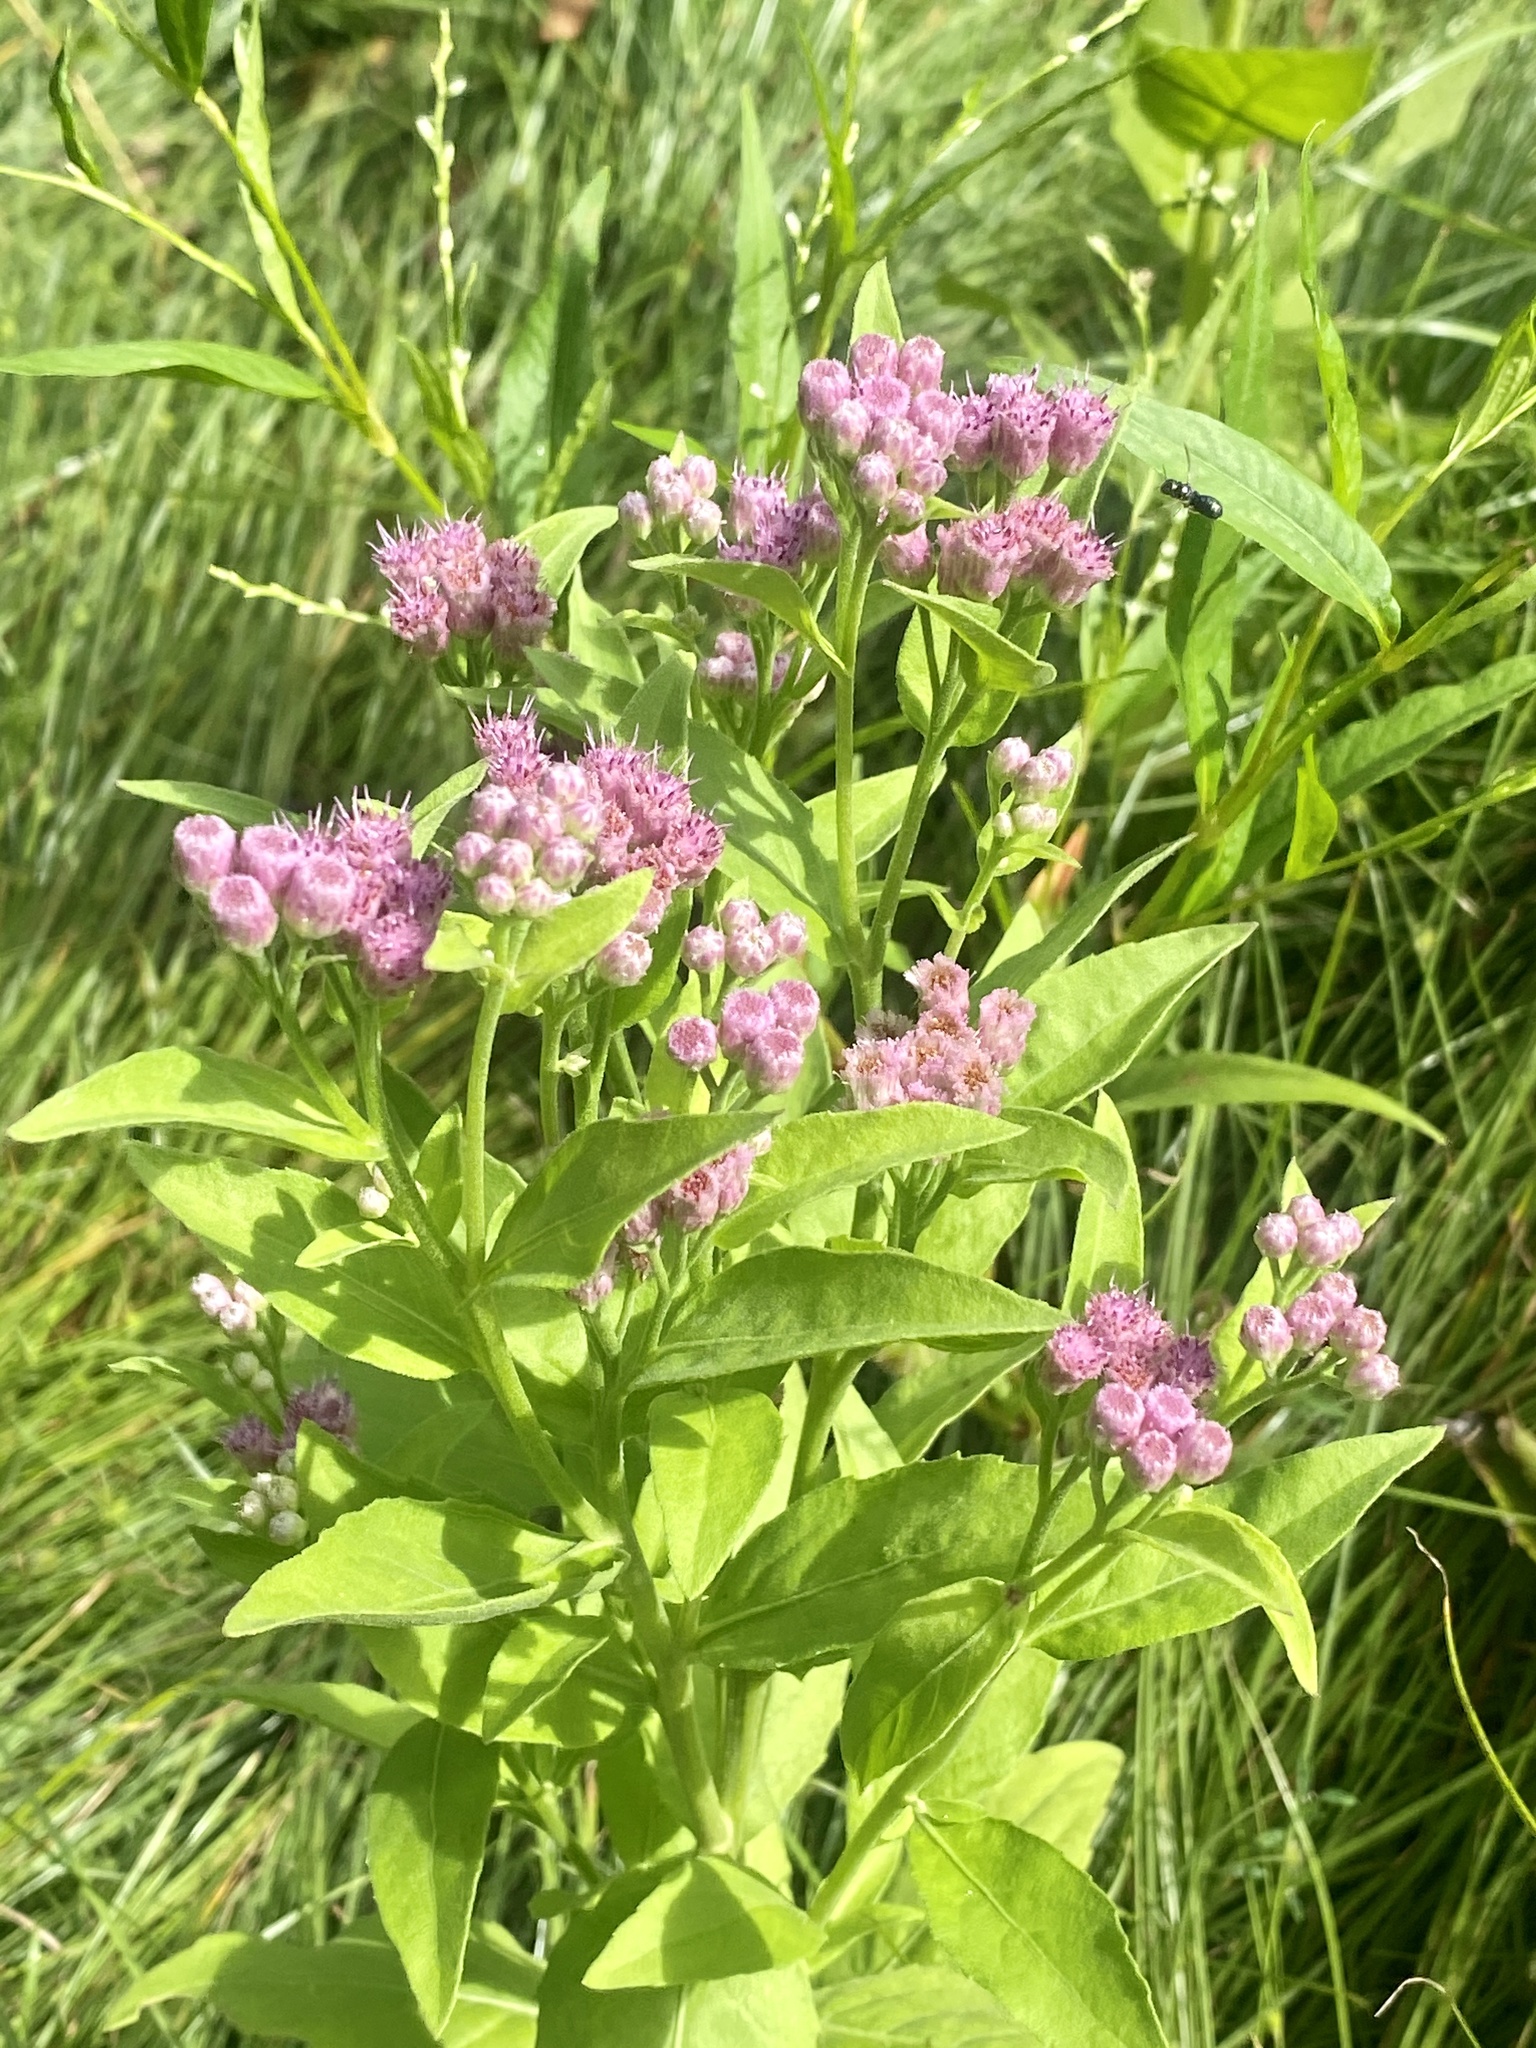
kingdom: Plantae
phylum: Tracheophyta
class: Magnoliopsida
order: Asterales
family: Asteraceae
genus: Pluchea
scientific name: Pluchea odorata
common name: Saltmarsh fleabane
